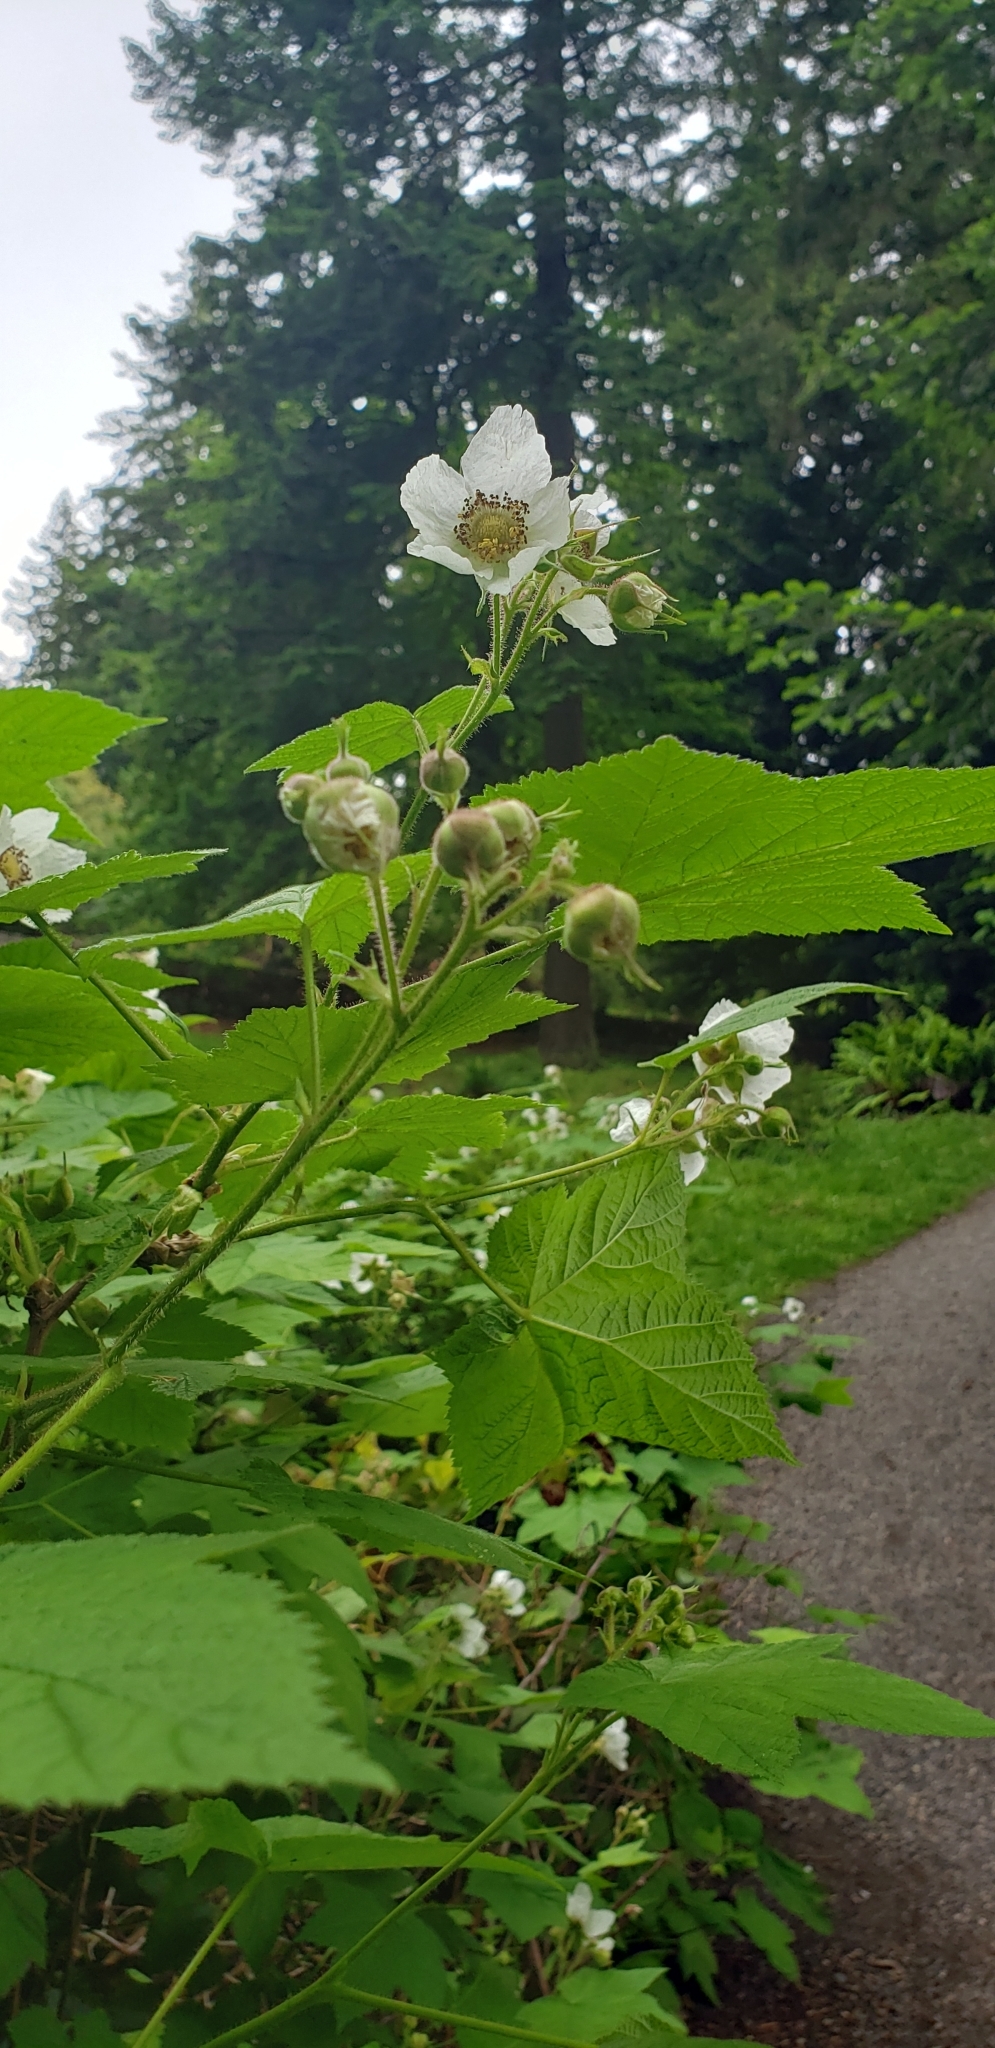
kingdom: Plantae
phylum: Tracheophyta
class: Magnoliopsida
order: Rosales
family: Rosaceae
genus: Rubus
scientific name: Rubus parviflorus
